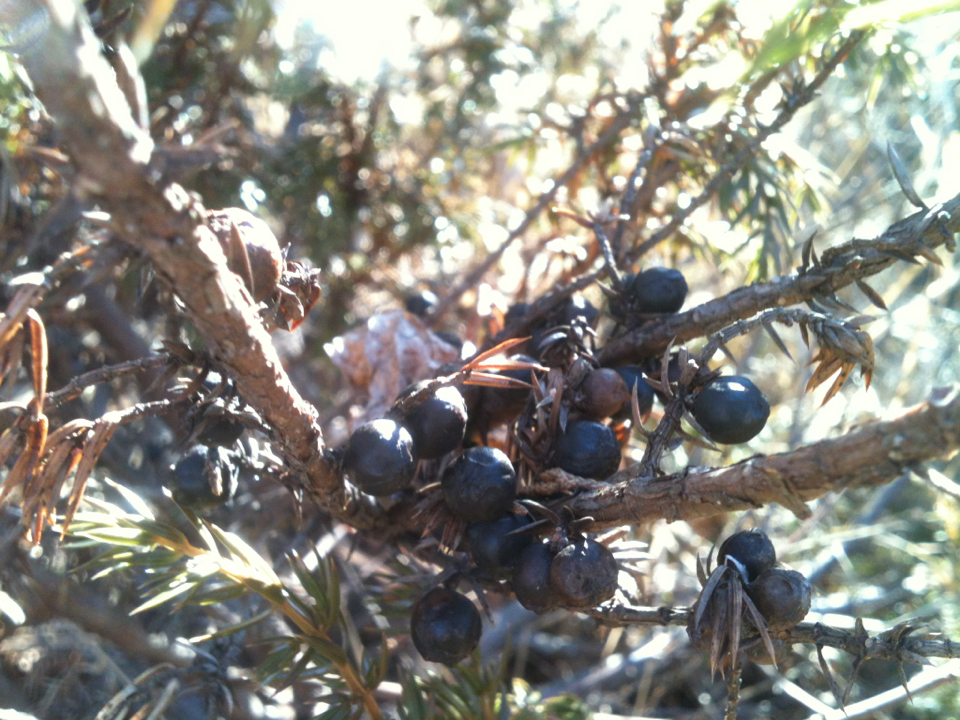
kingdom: Plantae
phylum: Tracheophyta
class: Pinopsida
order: Pinales
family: Cupressaceae
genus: Juniperus
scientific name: Juniperus communis
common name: Common juniper
